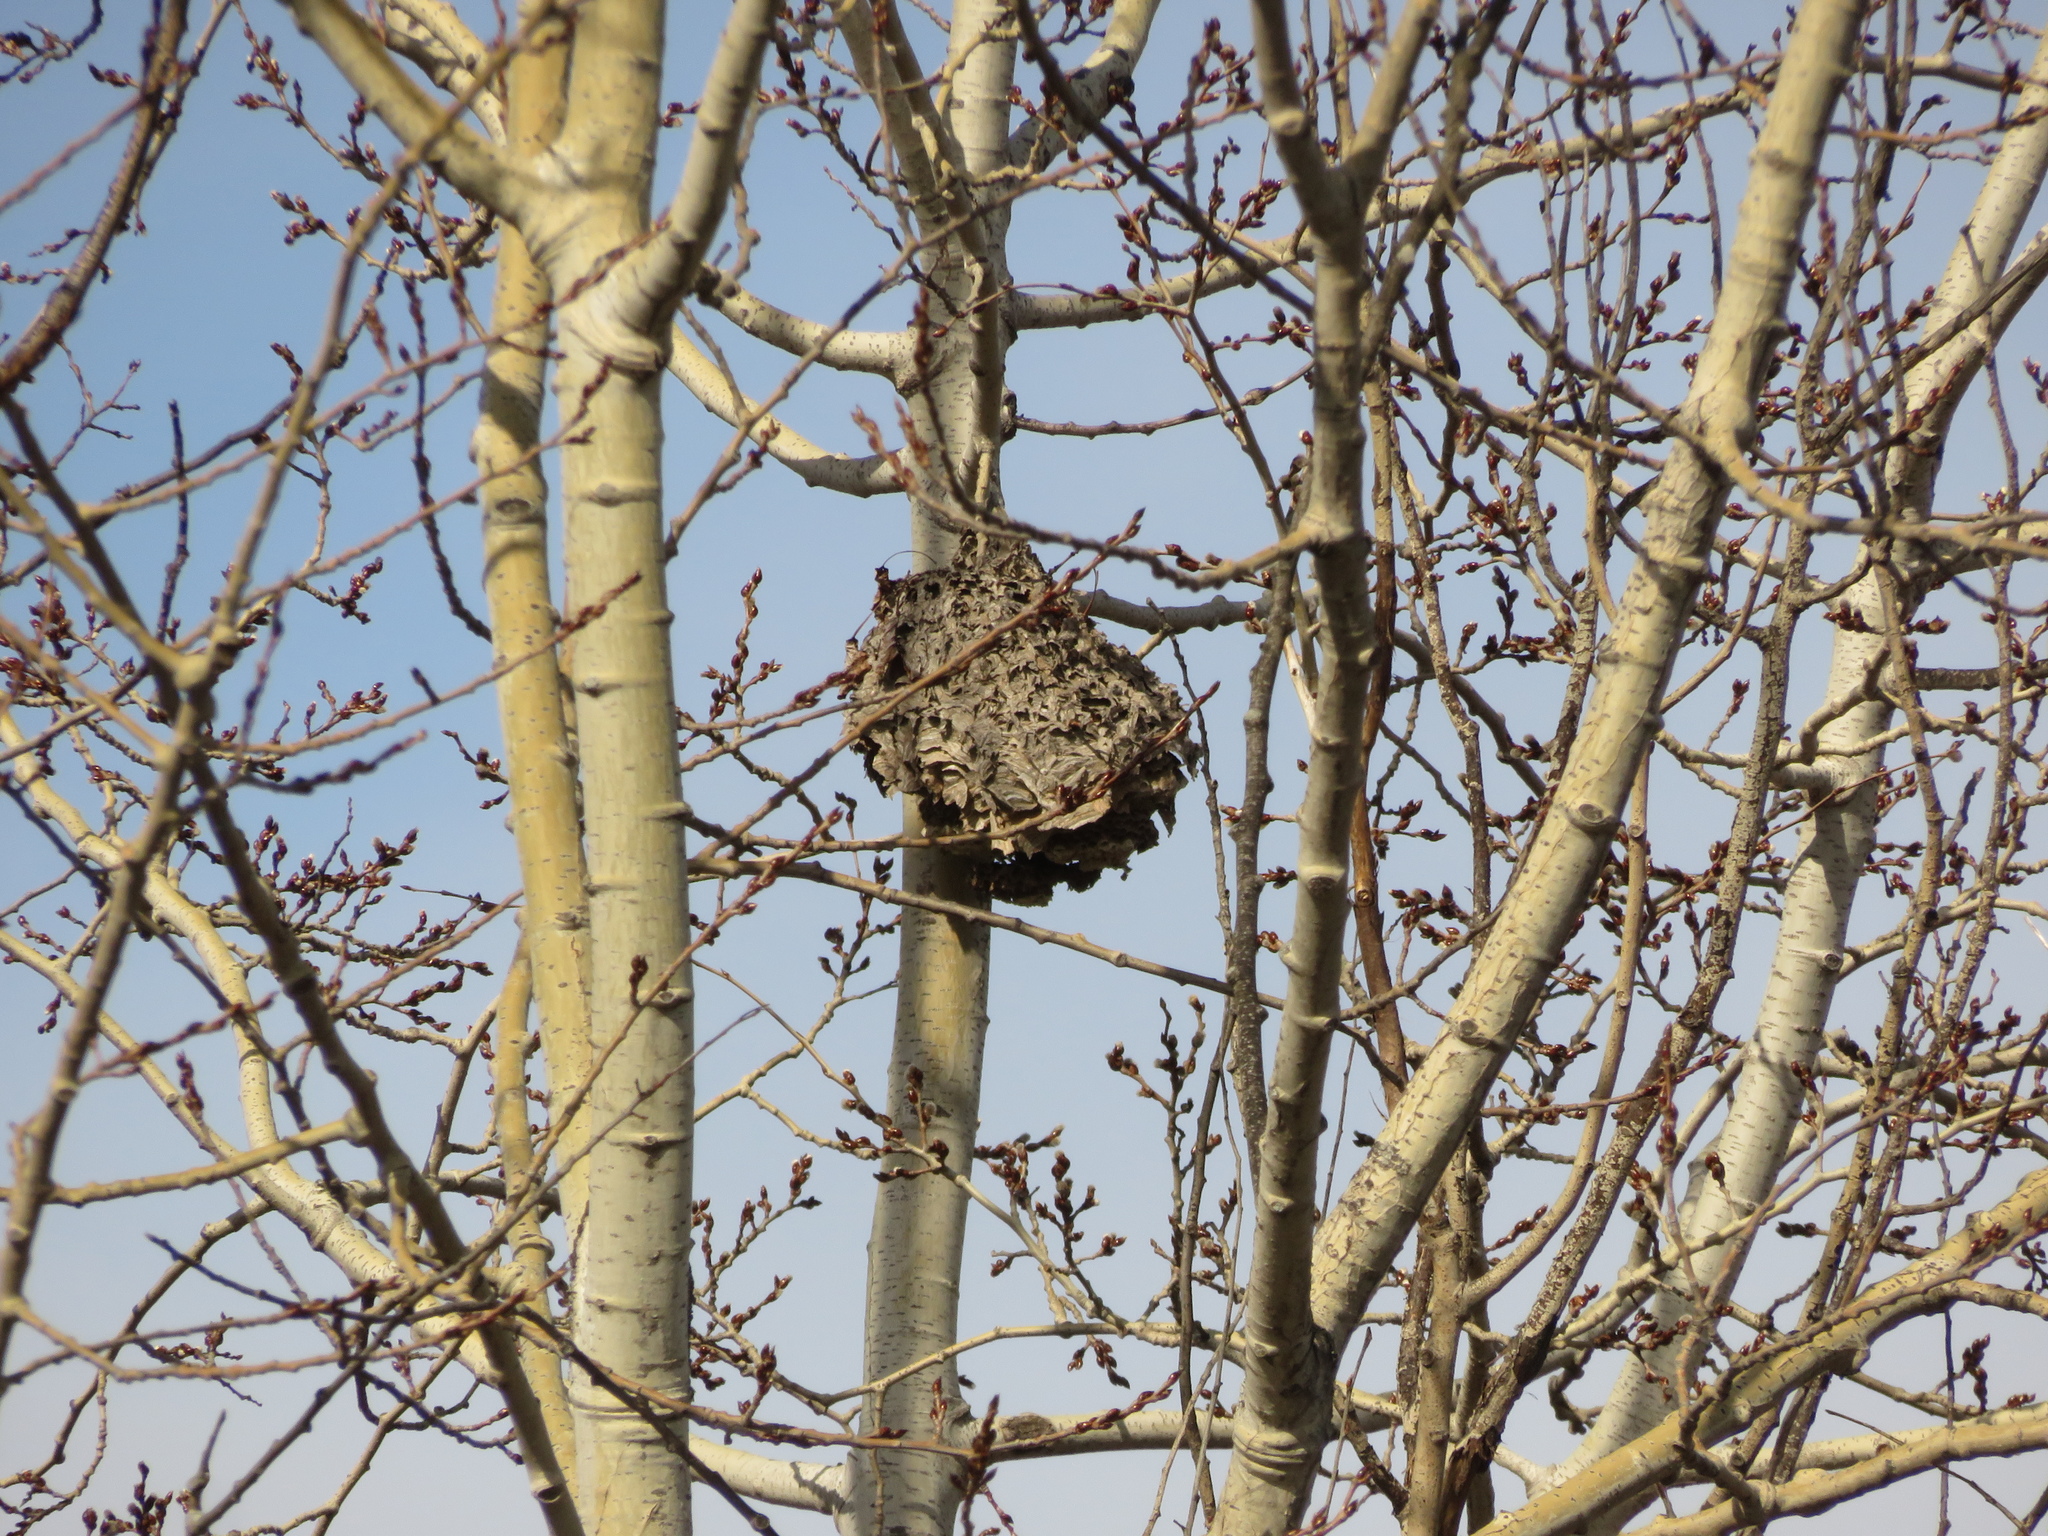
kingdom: Animalia
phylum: Arthropoda
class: Insecta
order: Hymenoptera
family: Vespidae
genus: Dolichovespula
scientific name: Dolichovespula
